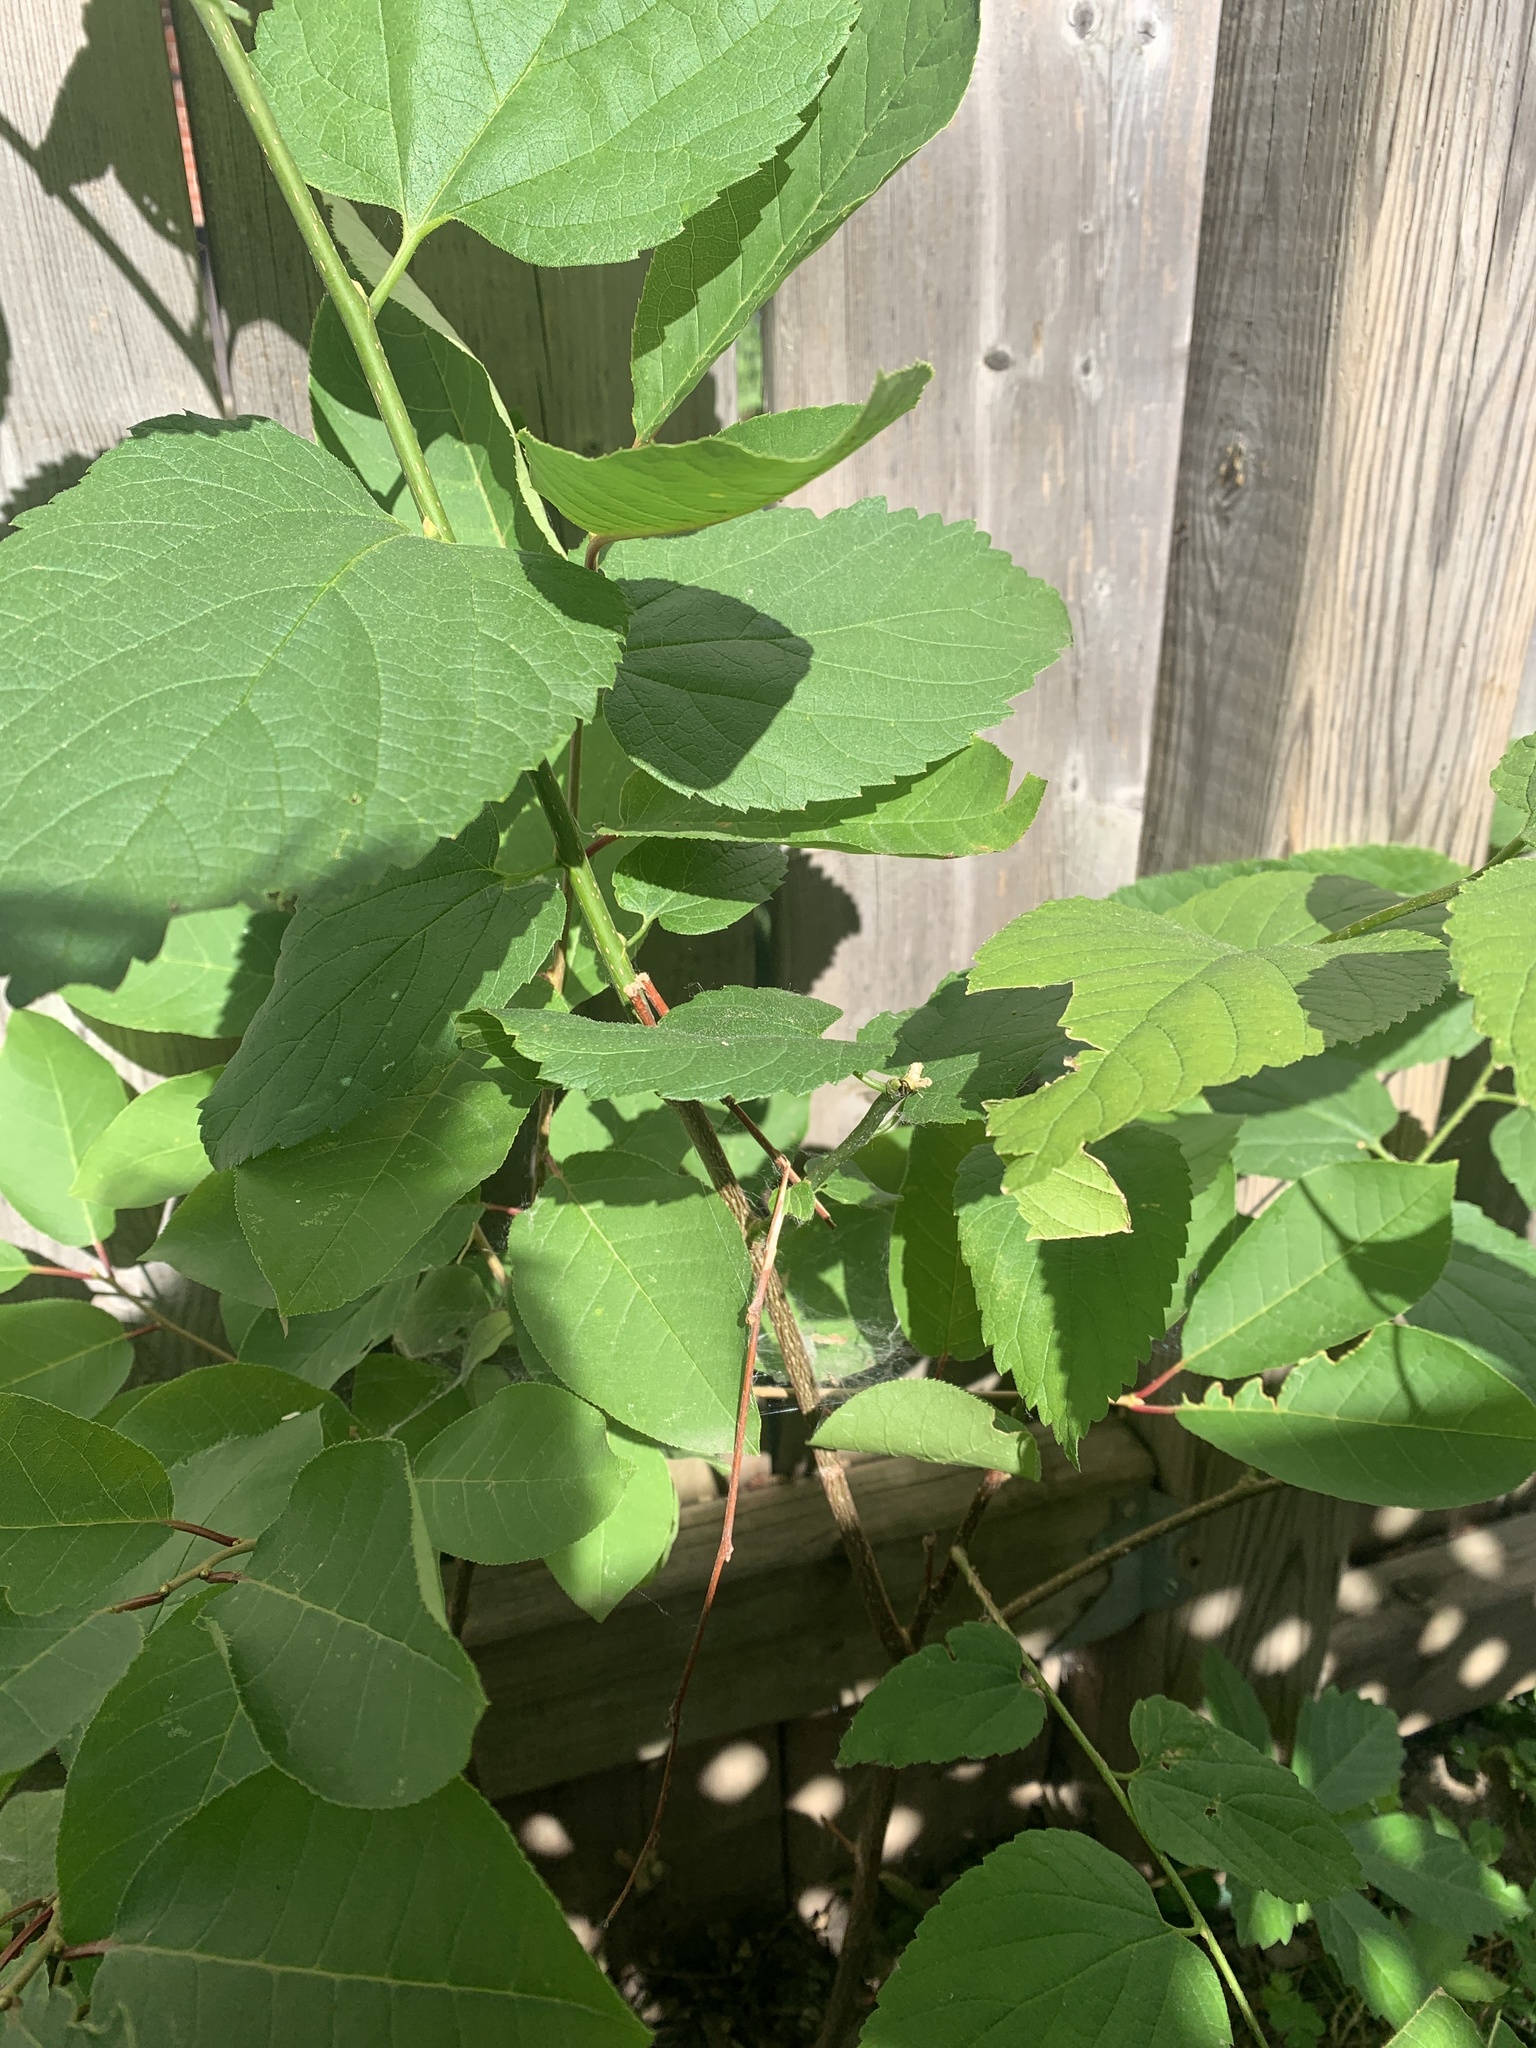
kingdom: Plantae
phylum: Tracheophyta
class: Magnoliopsida
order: Rosales
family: Cannabaceae
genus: Celtis
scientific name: Celtis occidentalis
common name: Common hackberry
